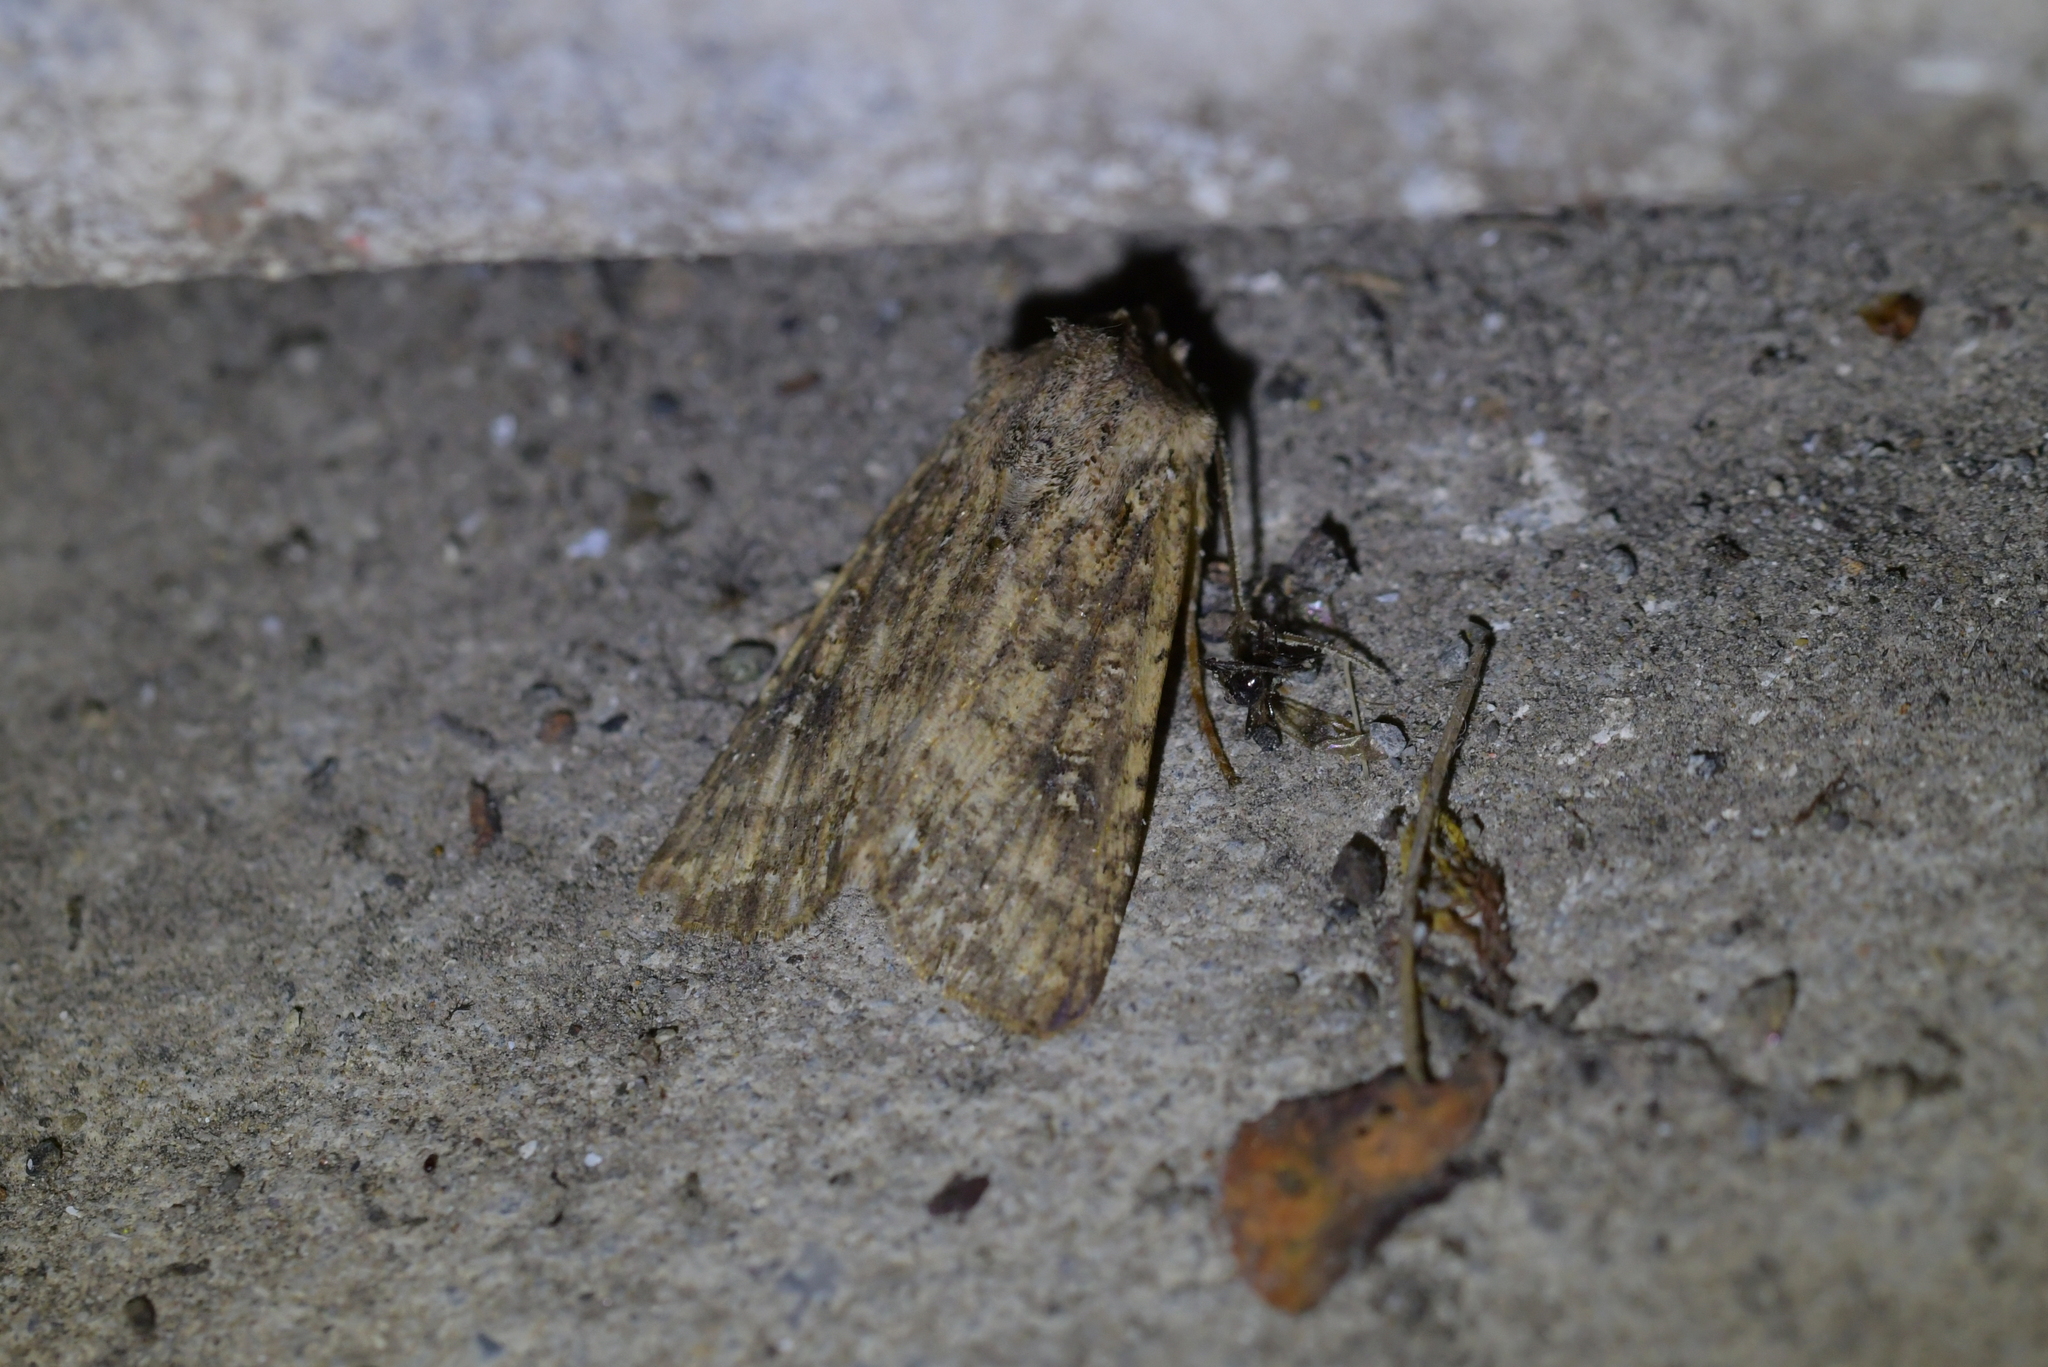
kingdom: Animalia
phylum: Arthropoda
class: Insecta
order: Lepidoptera
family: Noctuidae
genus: Ichneutica
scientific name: Ichneutica morosa
